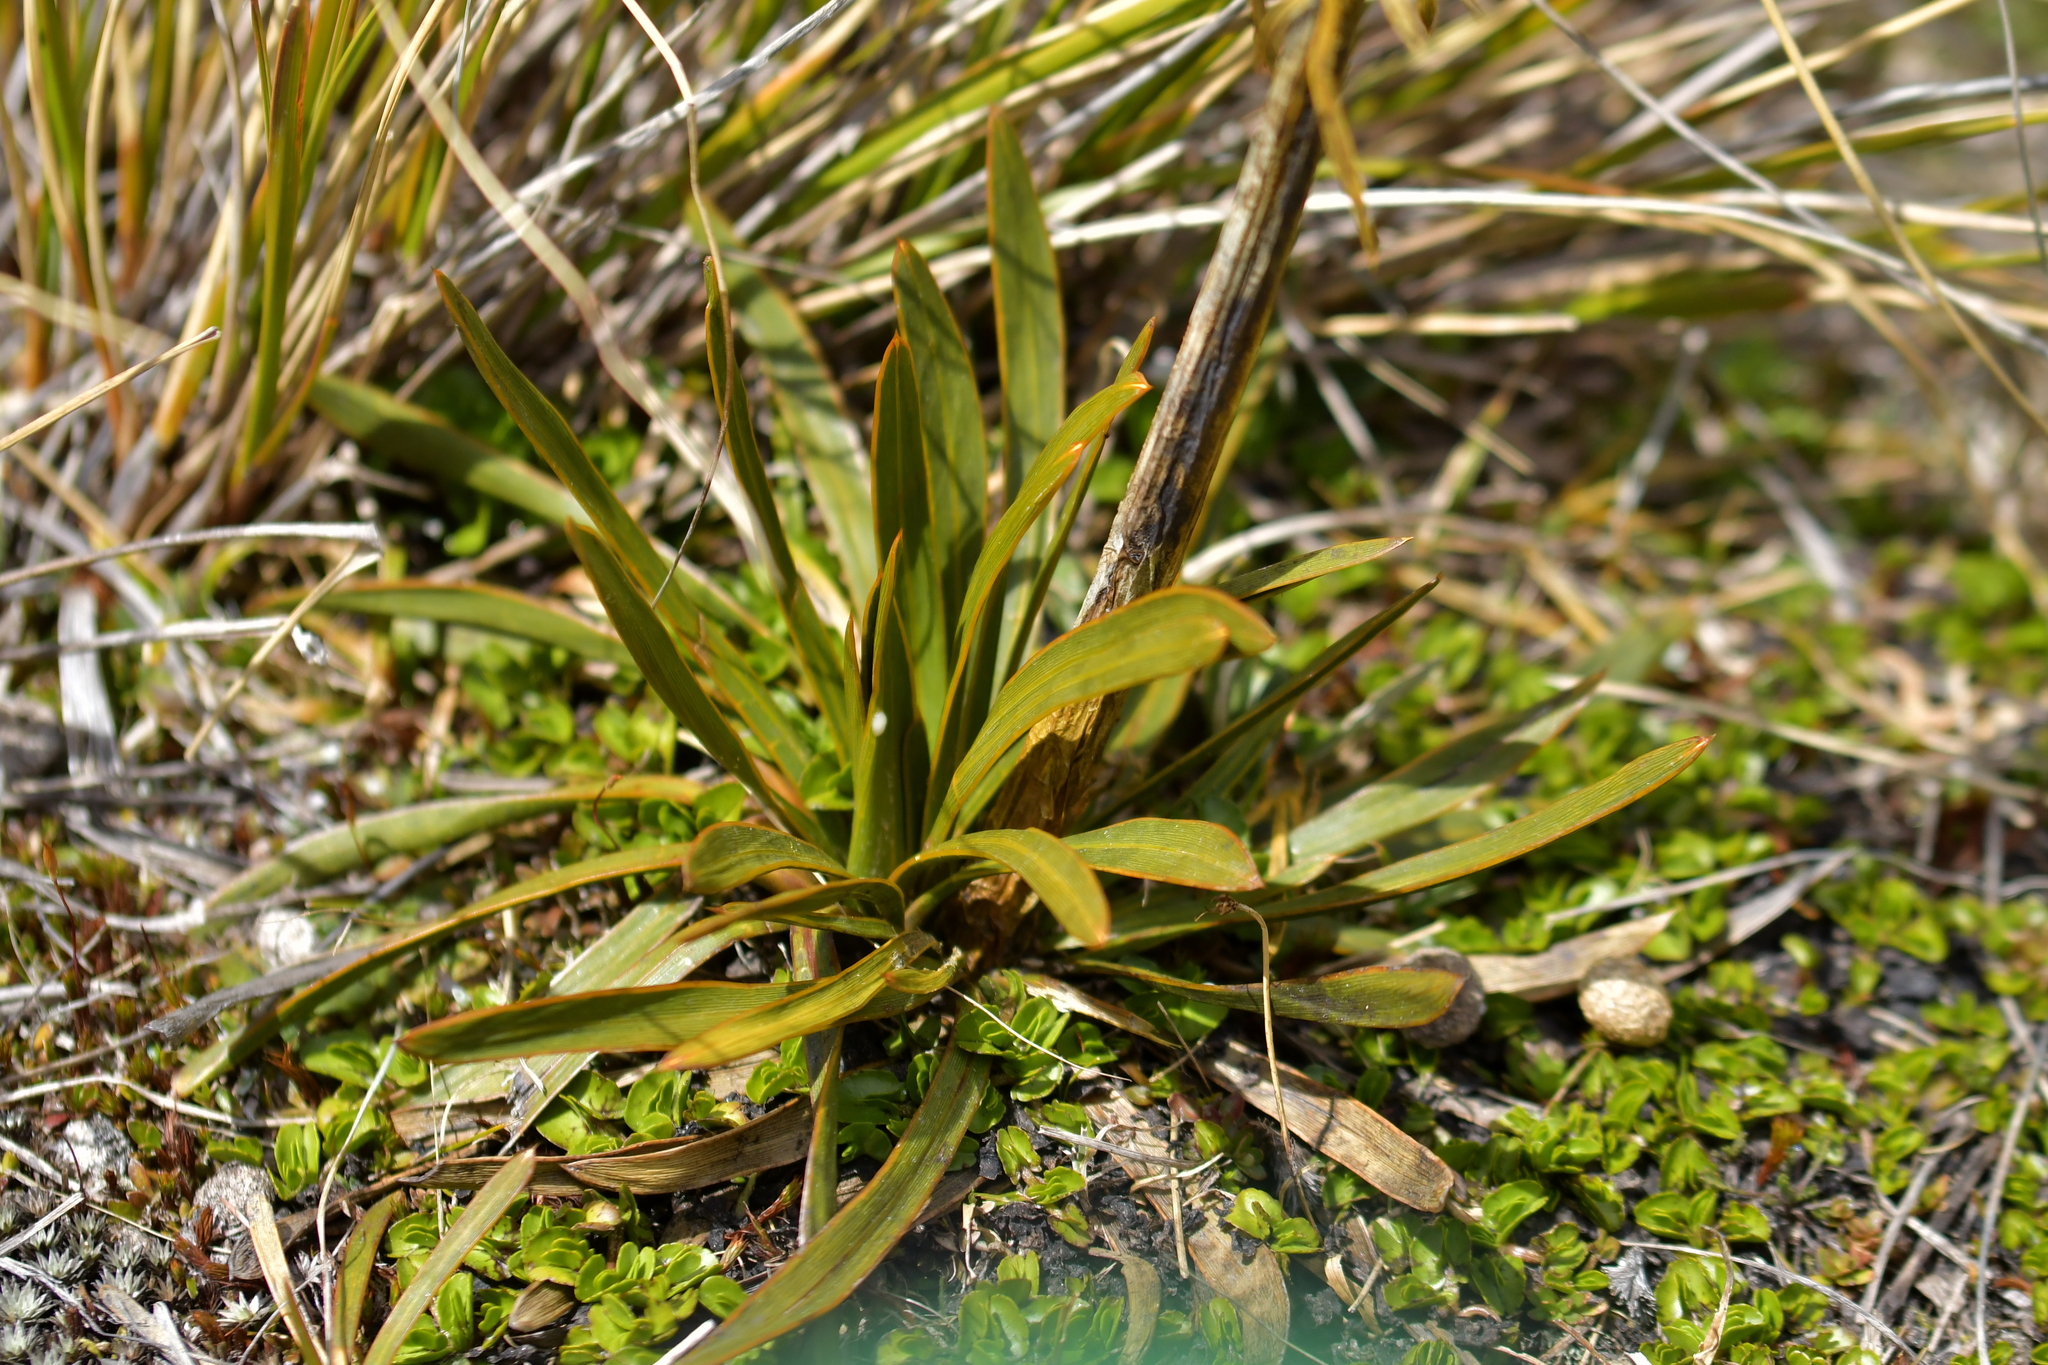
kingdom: Plantae
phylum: Tracheophyta
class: Magnoliopsida
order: Apiales
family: Apiaceae
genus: Aciphylla
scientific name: Aciphylla kirkii
